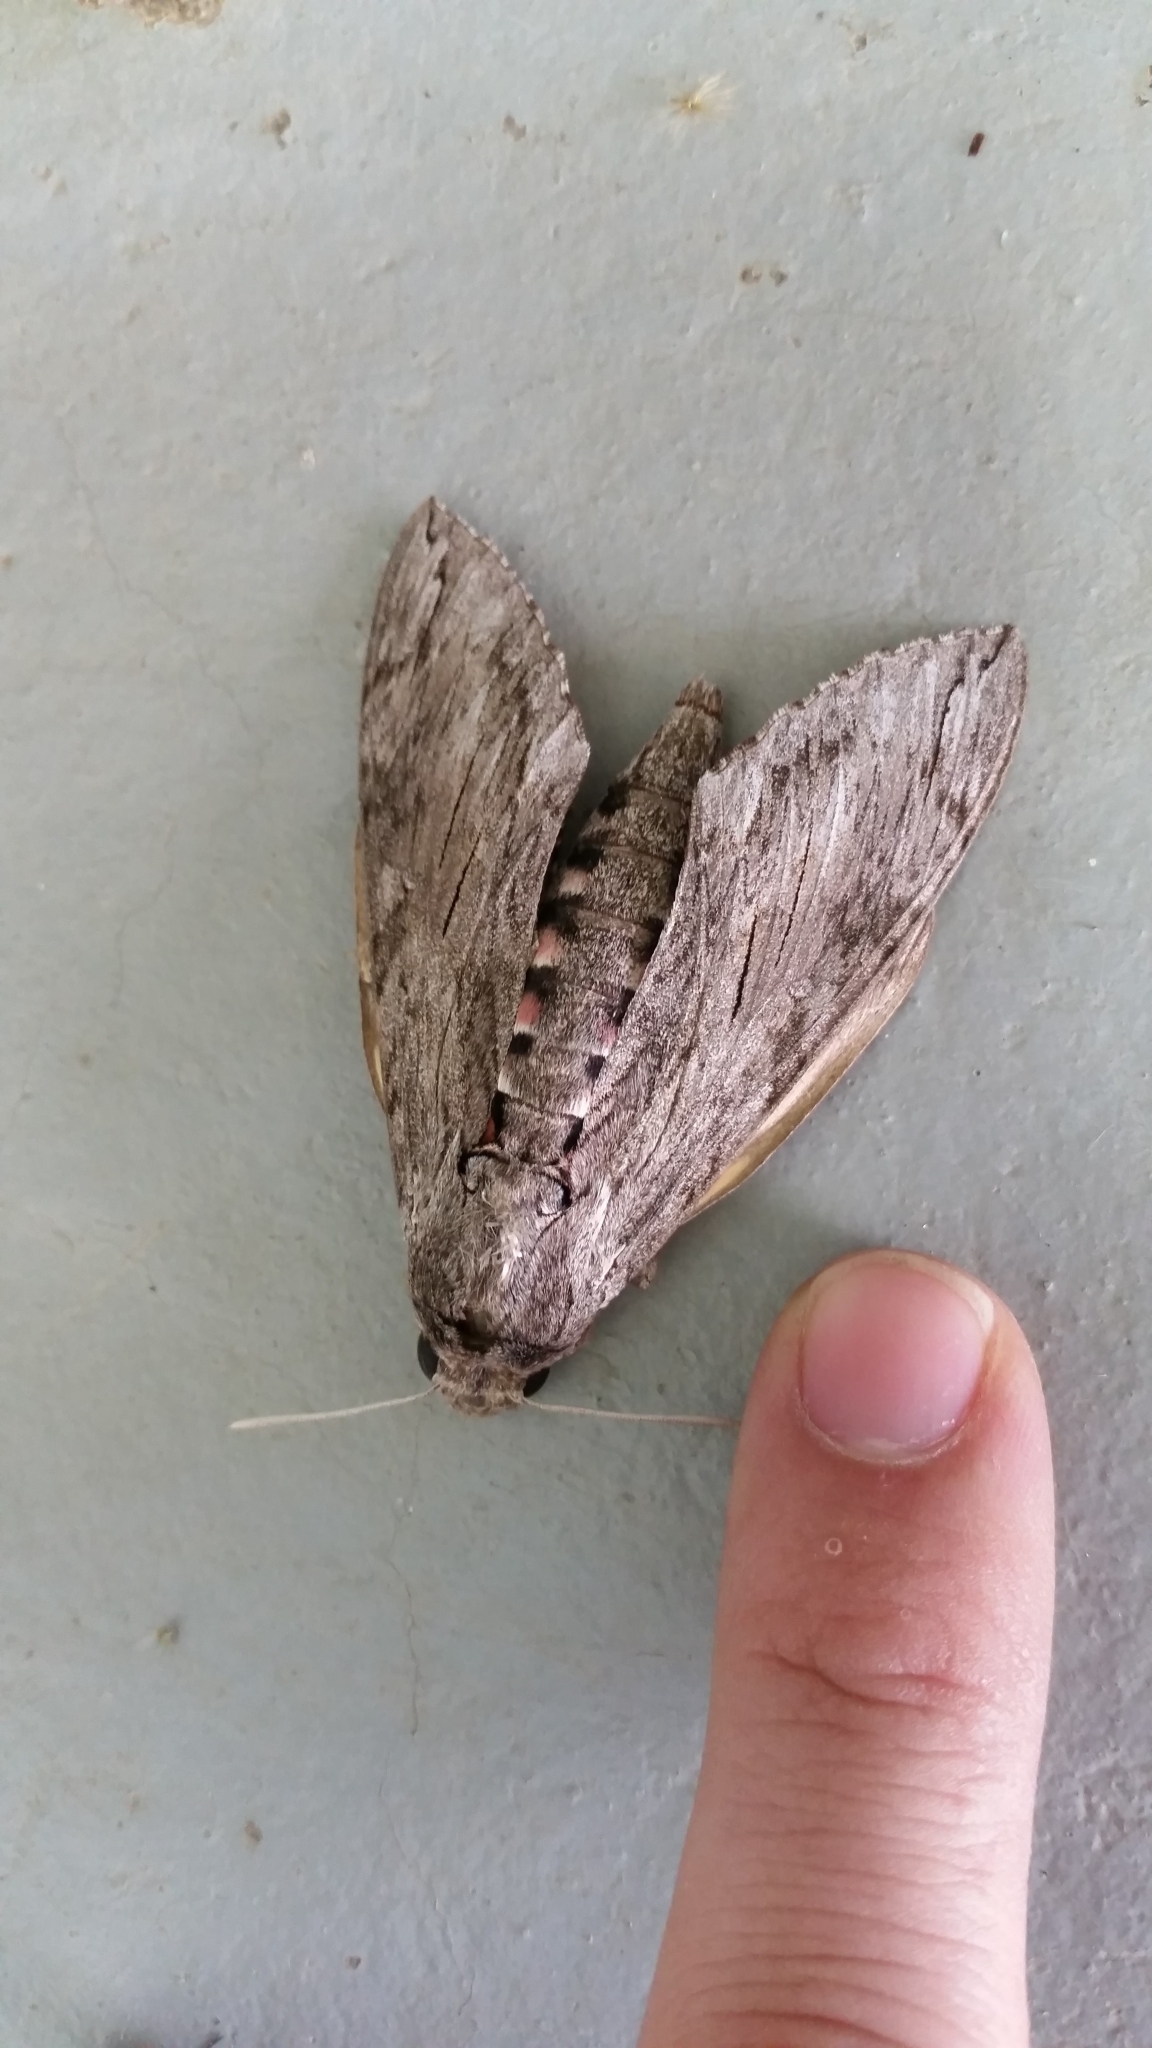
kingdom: Animalia
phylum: Arthropoda
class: Insecta
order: Lepidoptera
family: Sphingidae
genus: Agrius
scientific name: Agrius convolvuli
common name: Convolvulus hawkmoth
